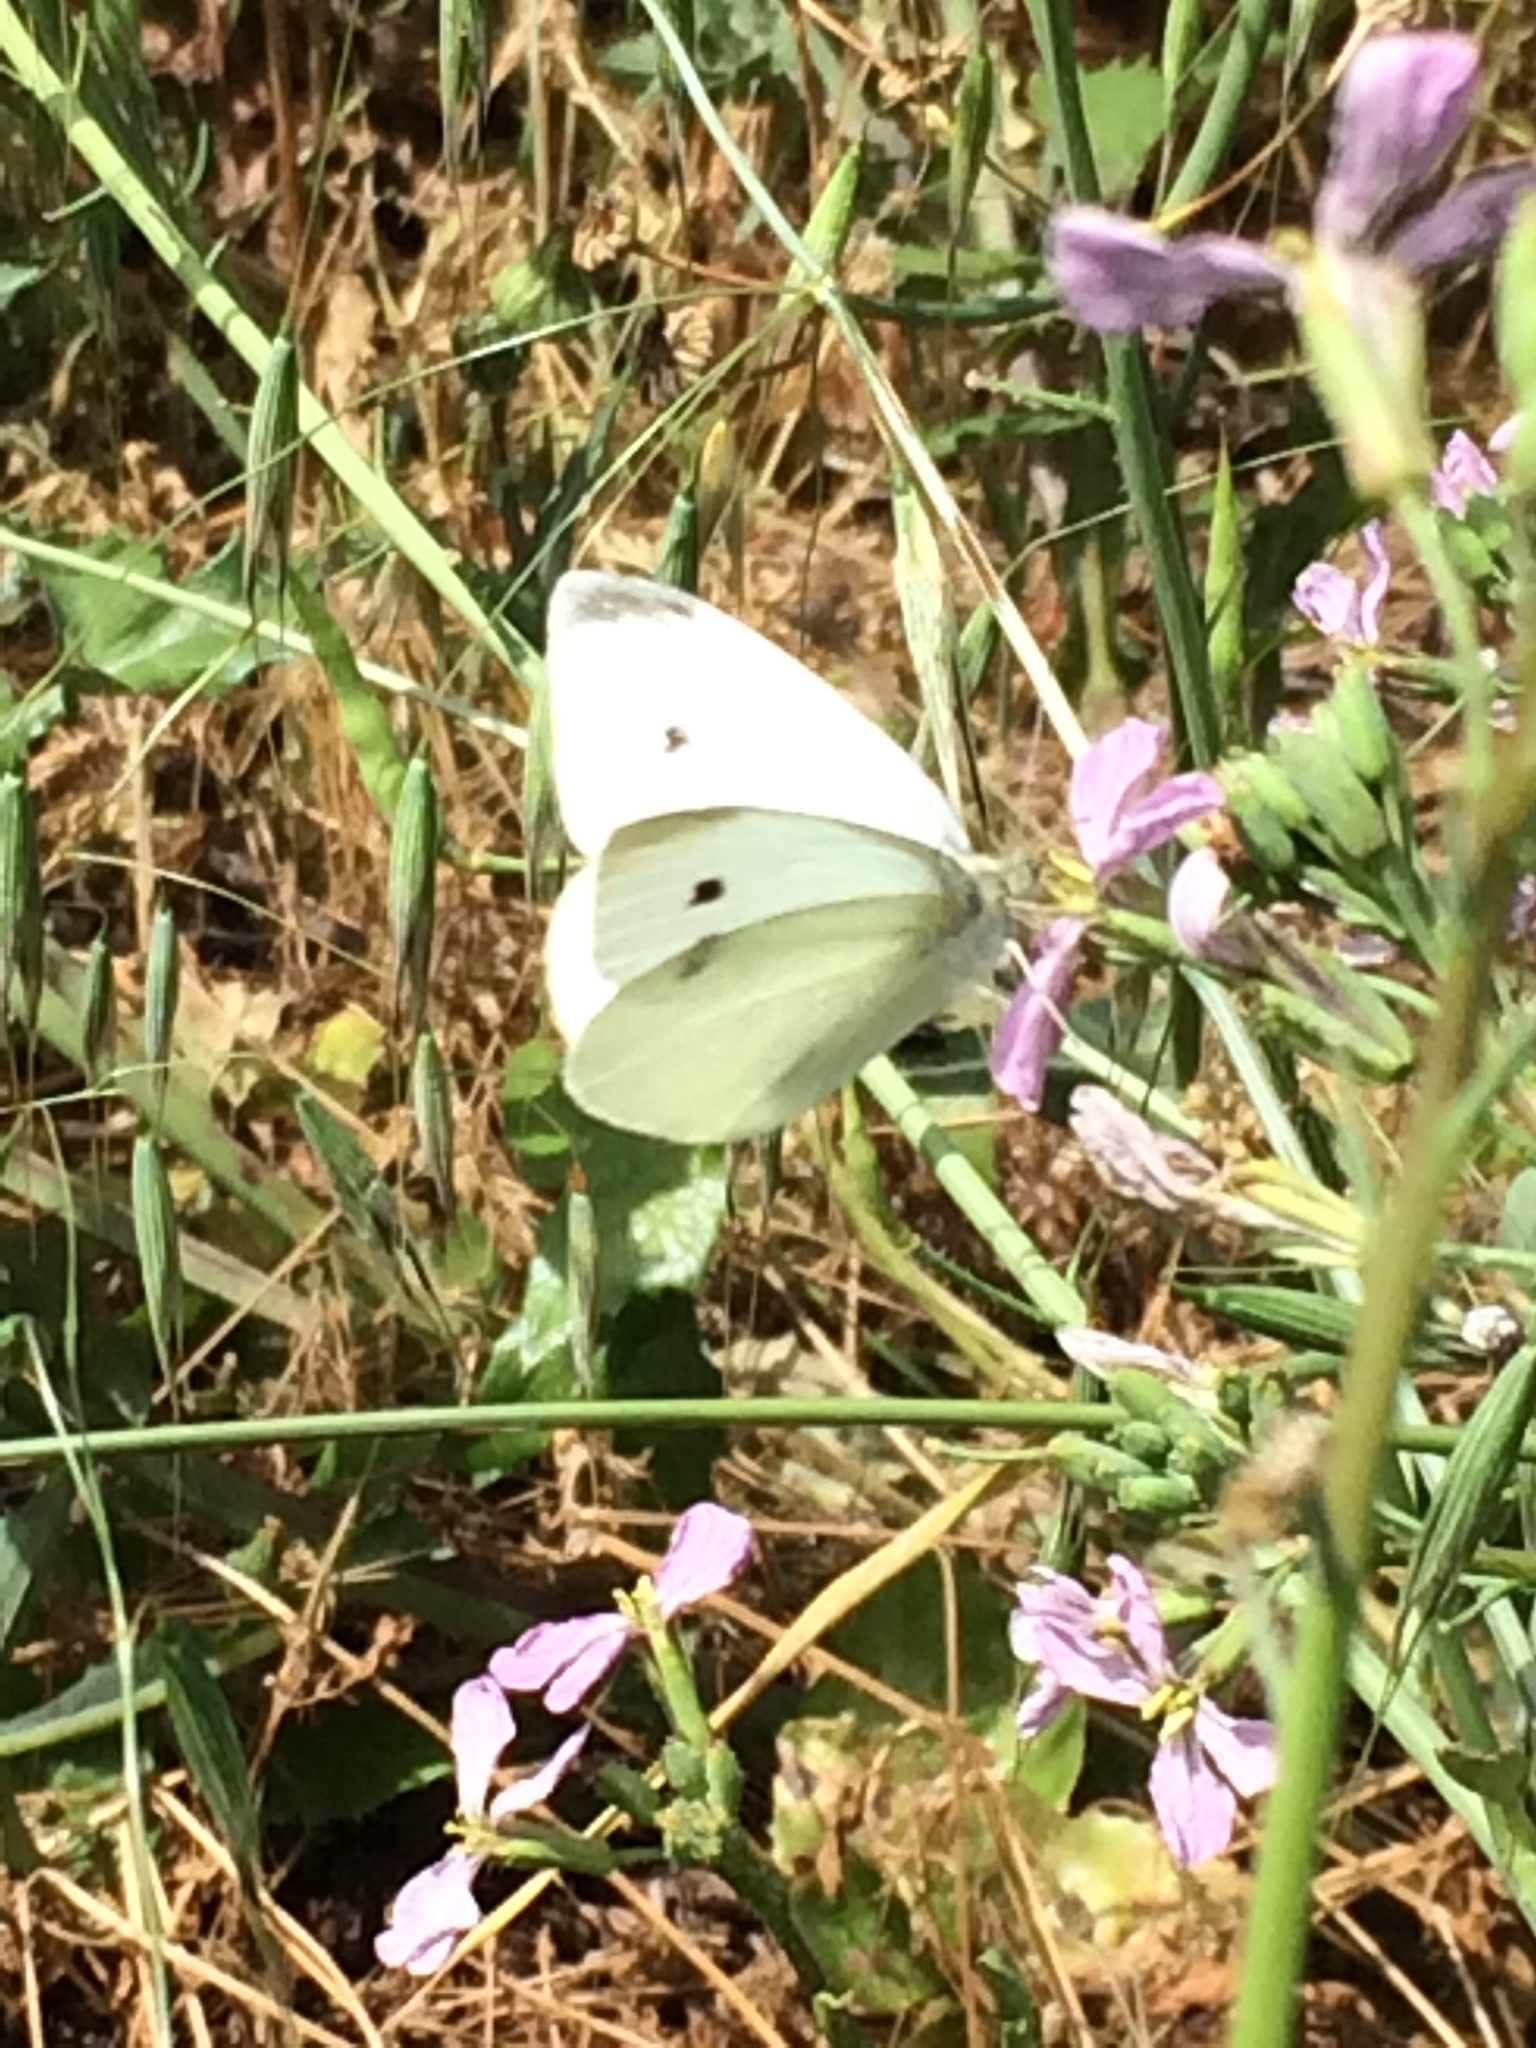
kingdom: Animalia
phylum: Arthropoda
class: Insecta
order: Lepidoptera
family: Pieridae
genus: Pieris
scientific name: Pieris rapae
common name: Small white
